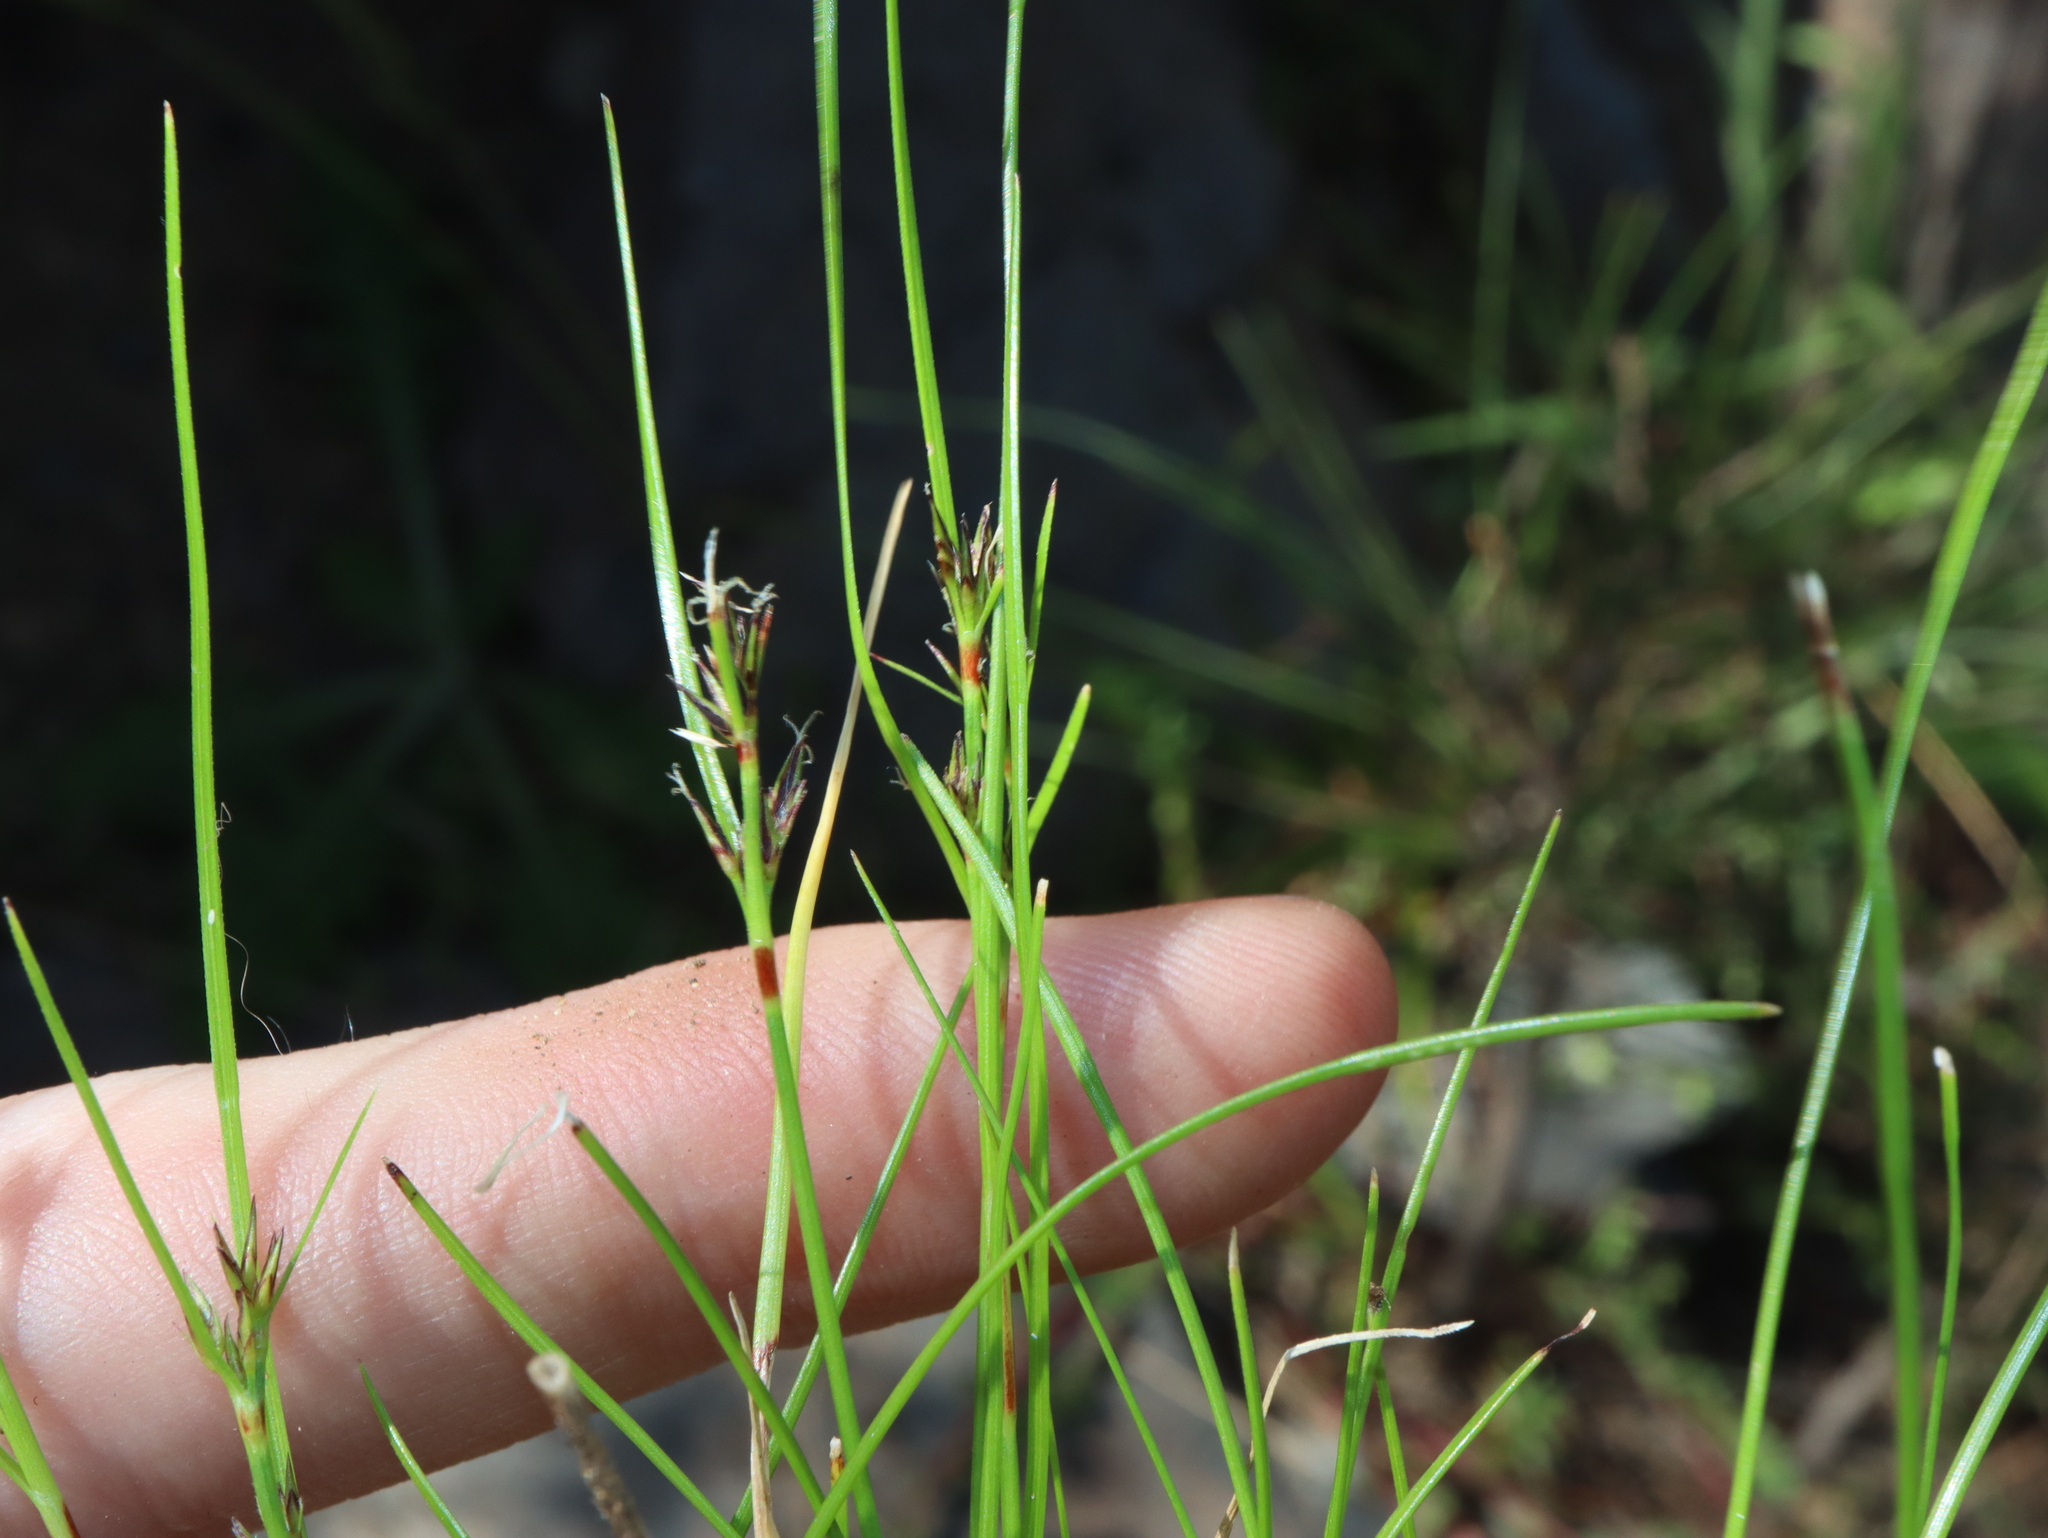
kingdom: Plantae
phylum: Tracheophyta
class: Liliopsida
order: Poales
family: Cyperaceae
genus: Schoenus
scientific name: Schoenus apogon
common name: Smooth bogrush
